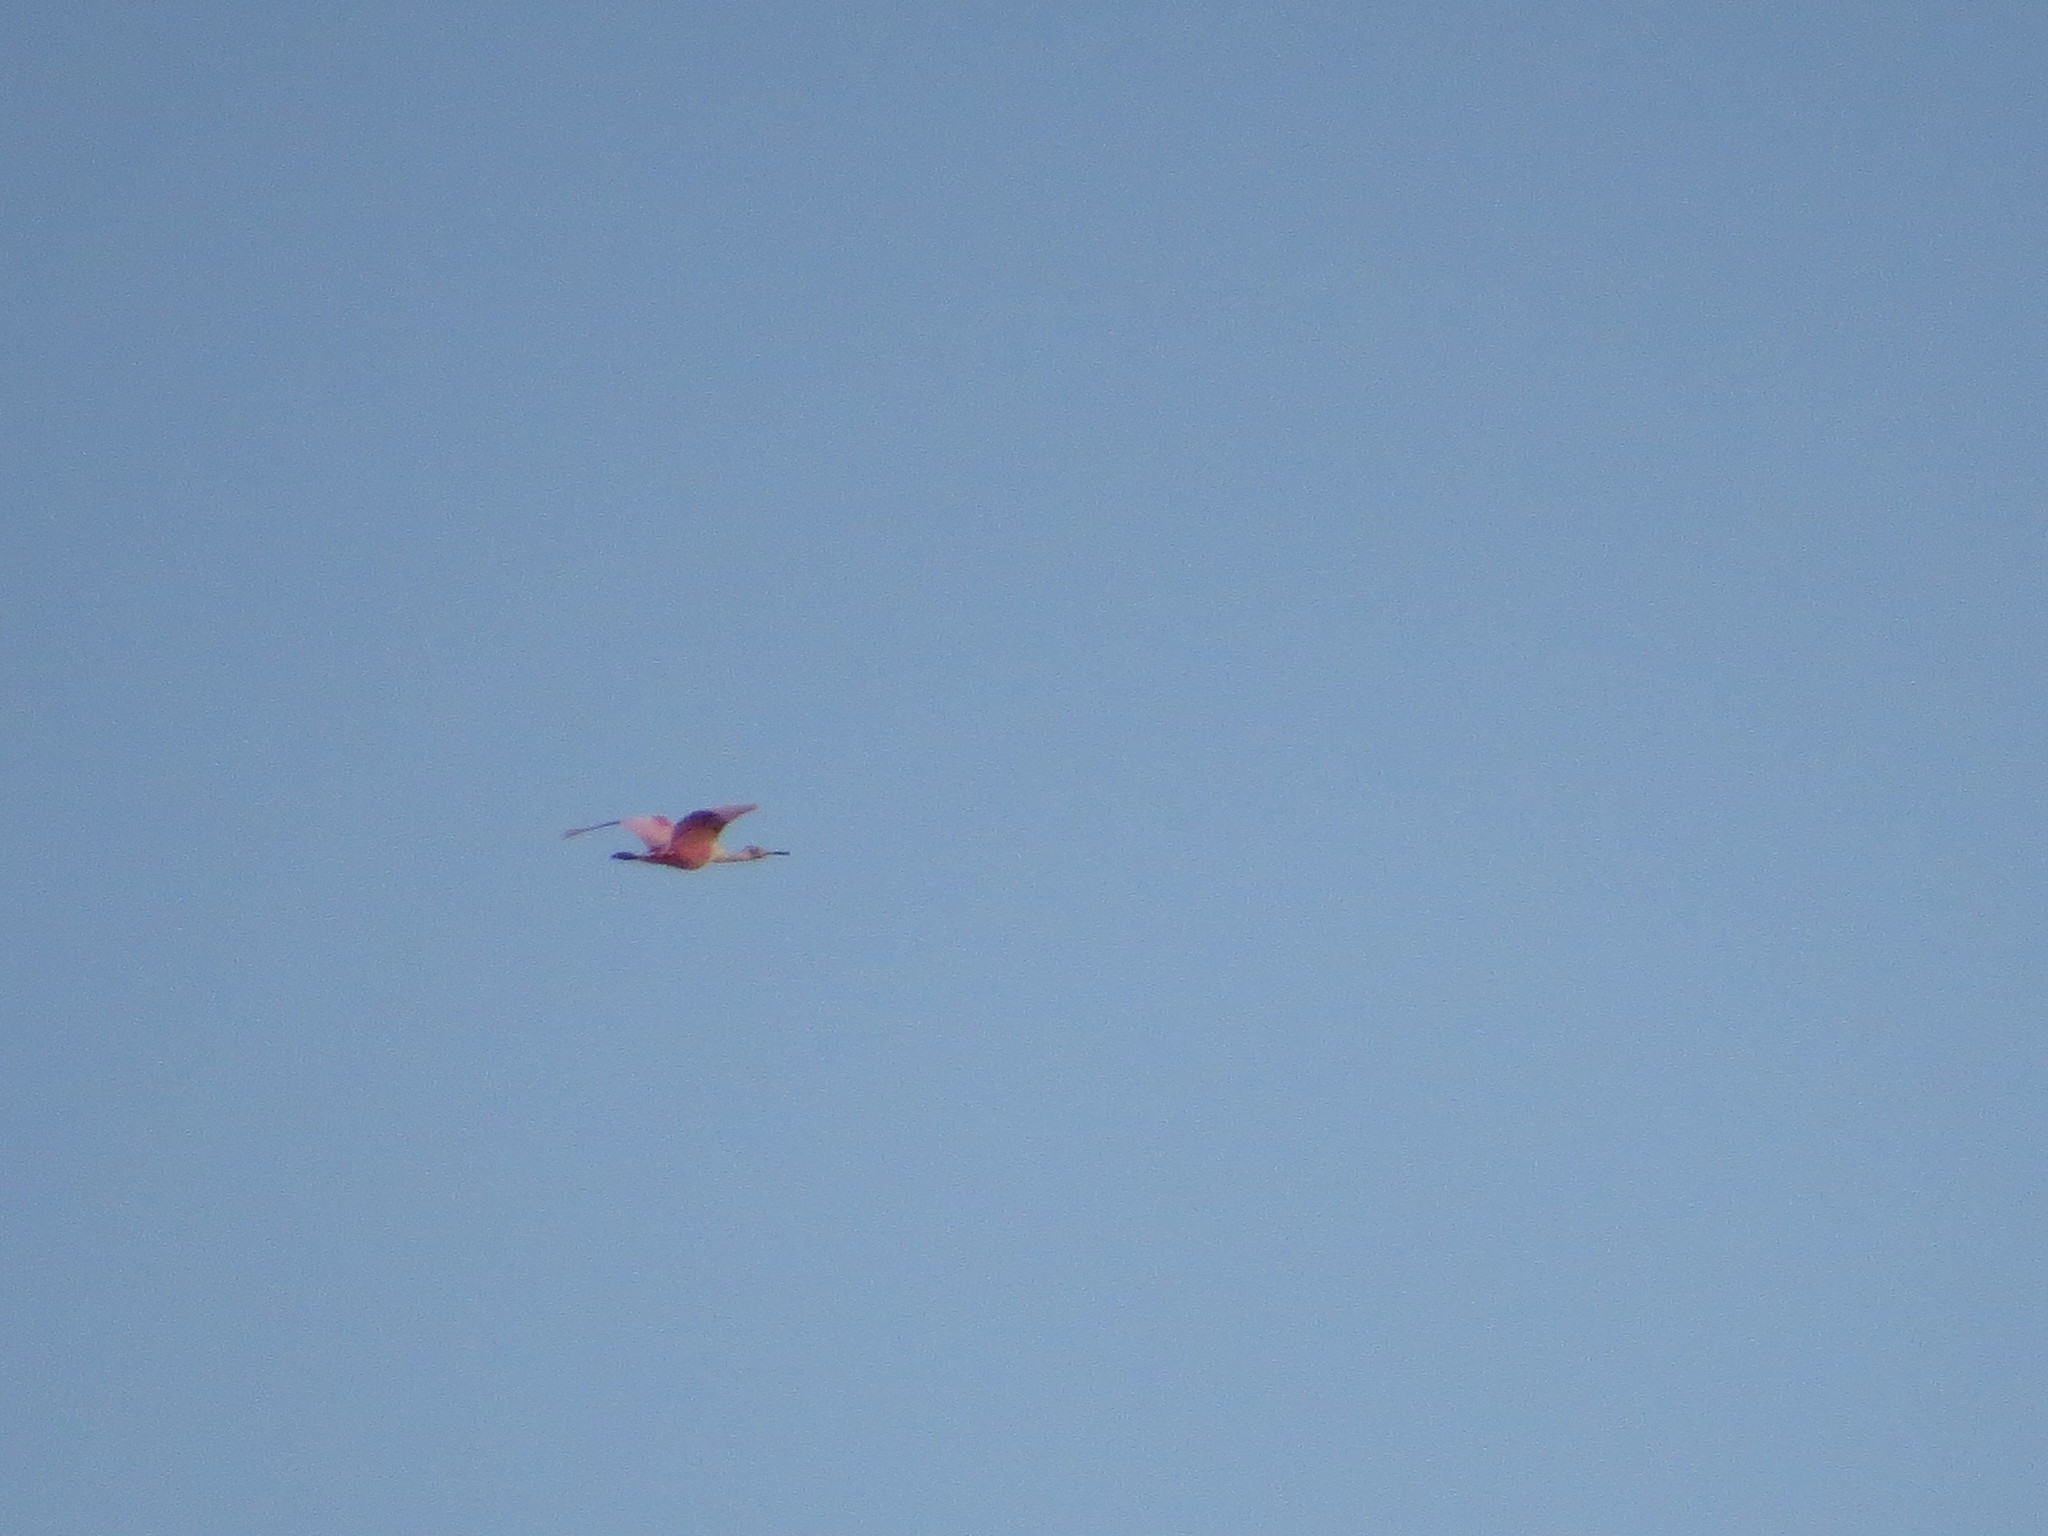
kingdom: Animalia
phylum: Chordata
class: Aves
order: Pelecaniformes
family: Threskiornithidae
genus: Platalea
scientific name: Platalea ajaja
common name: Roseate spoonbill
